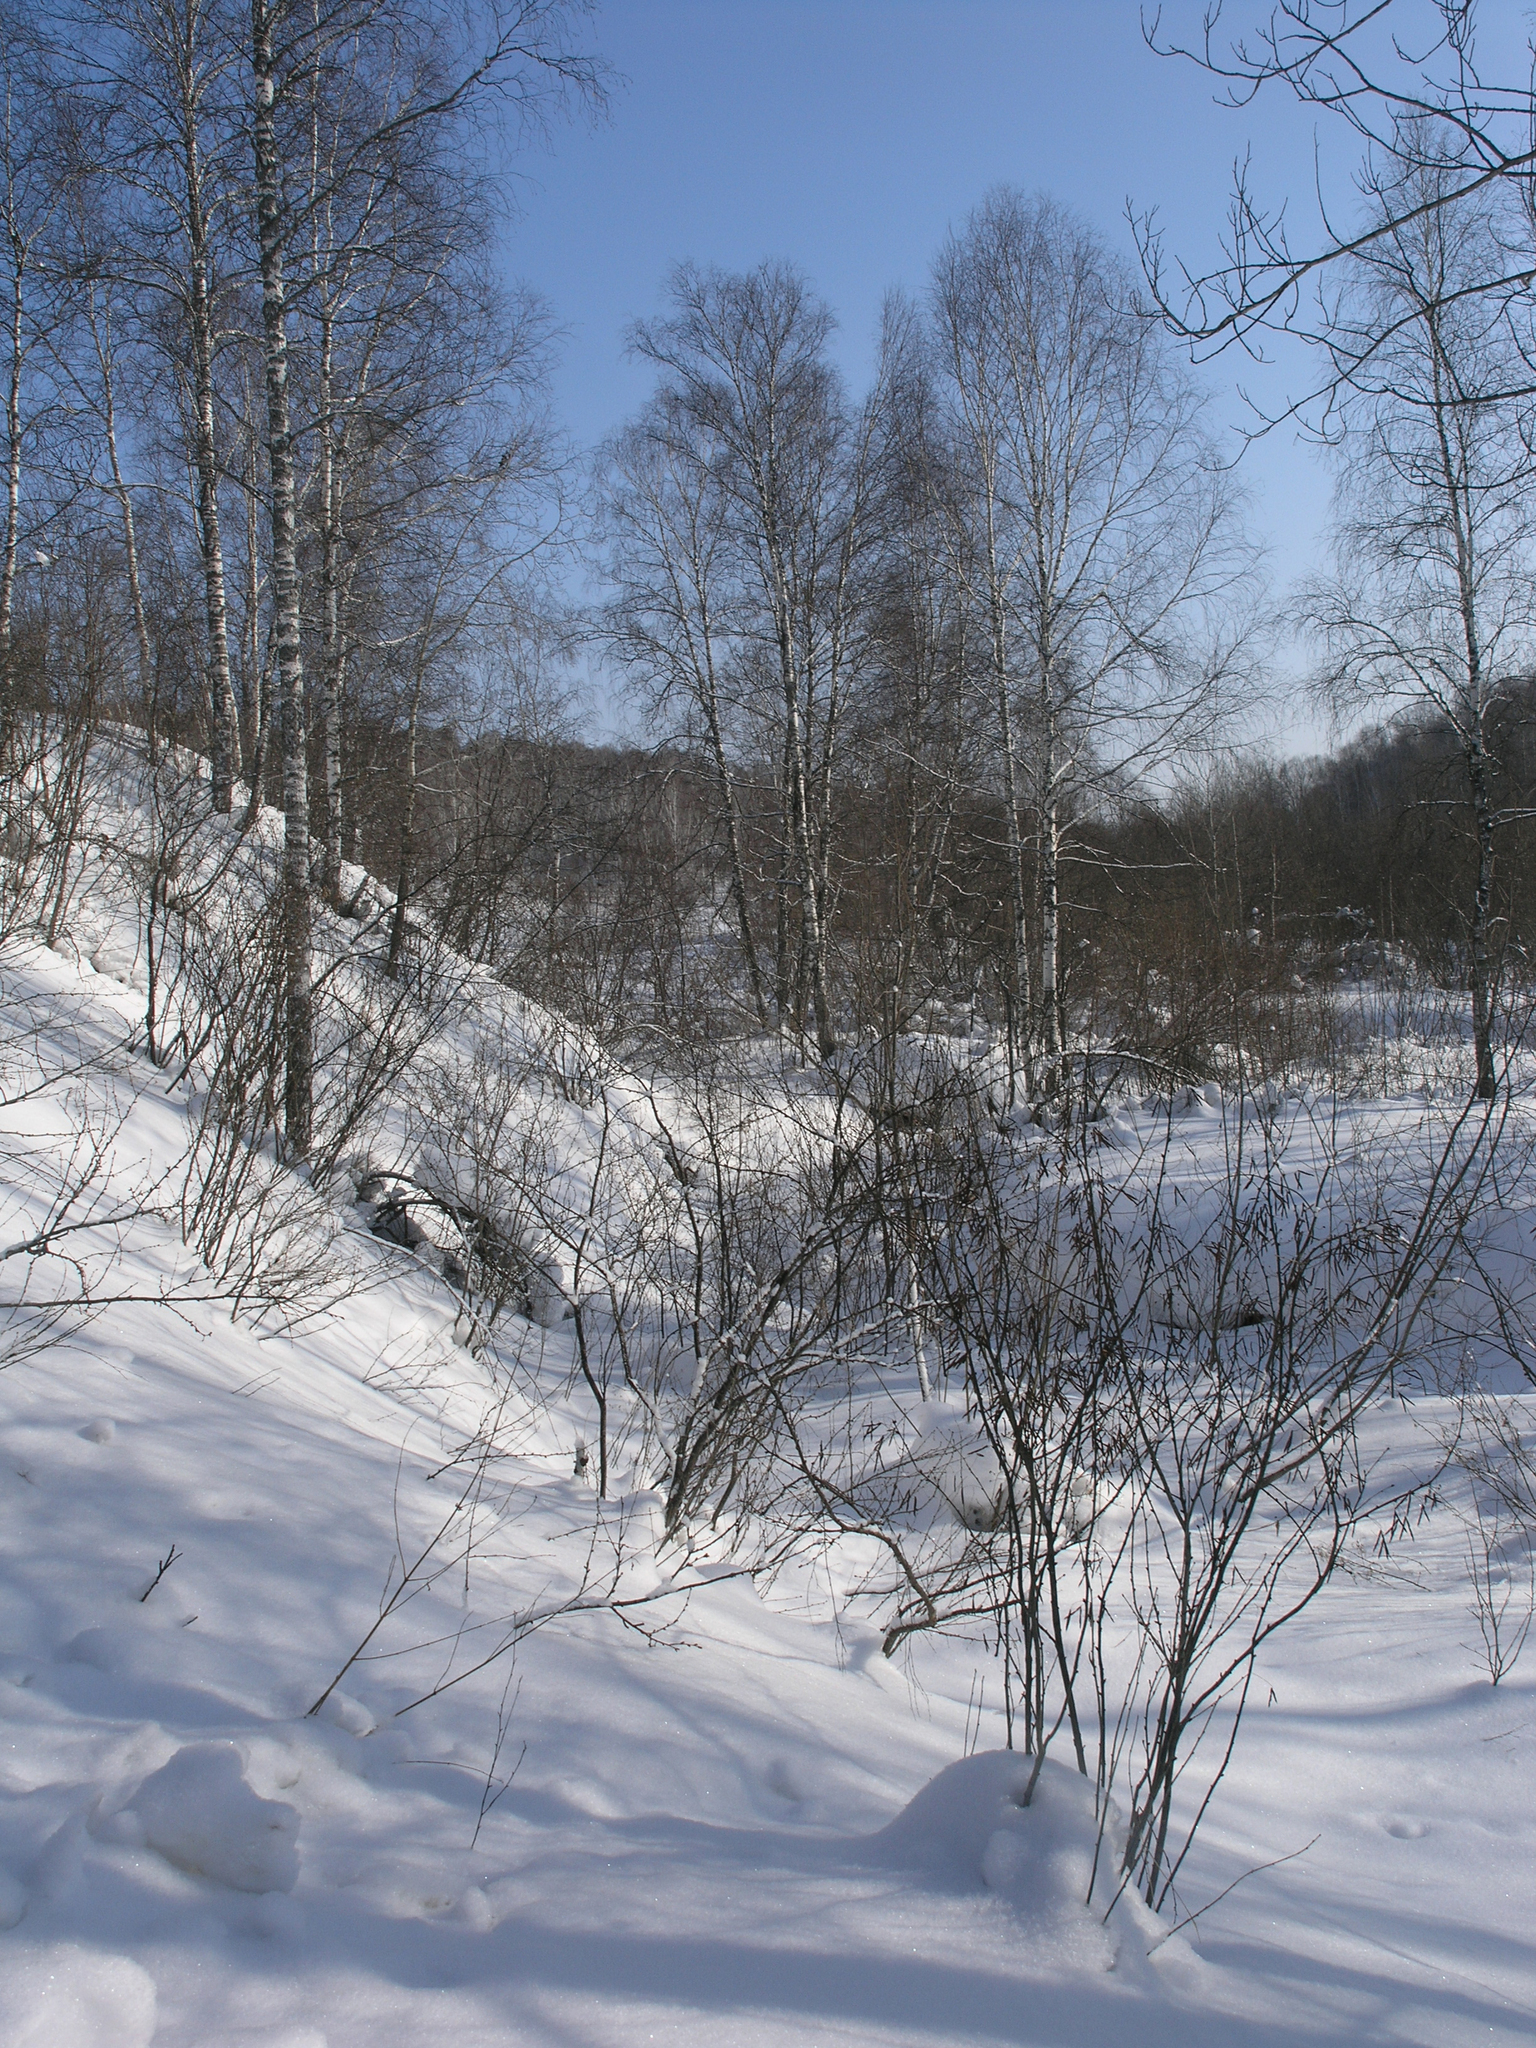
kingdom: Plantae
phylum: Tracheophyta
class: Magnoliopsida
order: Fabales
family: Fabaceae
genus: Caragana
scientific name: Caragana arborescens
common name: Siberian peashrub
